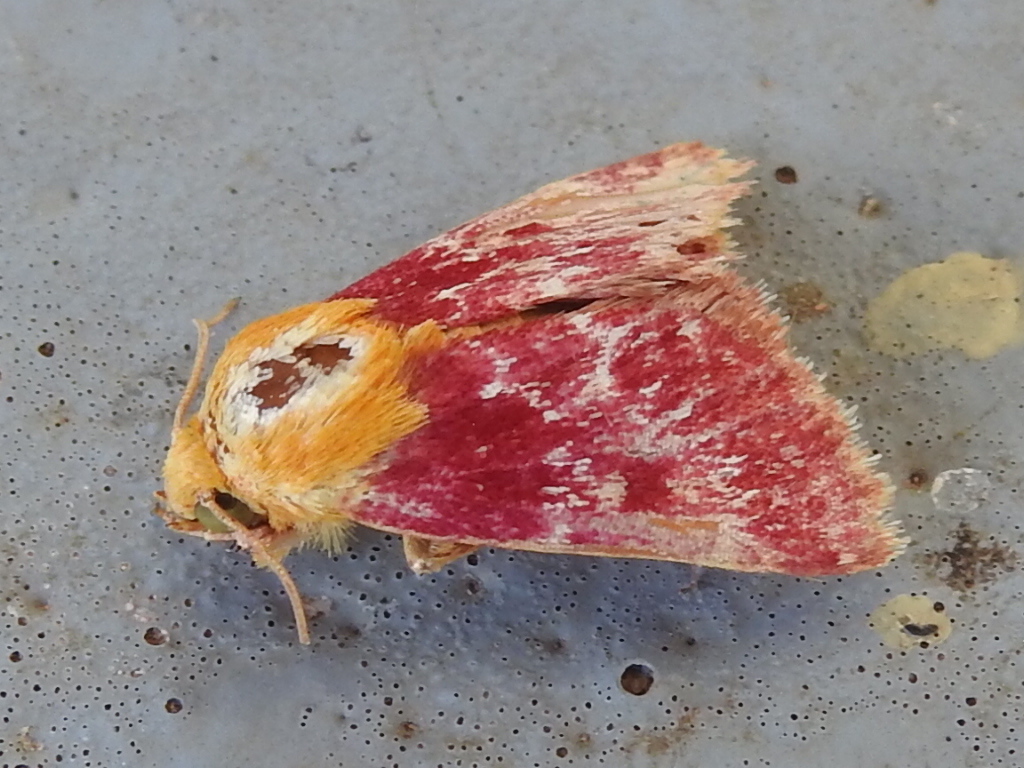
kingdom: Animalia
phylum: Arthropoda
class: Insecta
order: Lepidoptera
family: Noctuidae
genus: Schinia
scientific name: Schinia volupia
